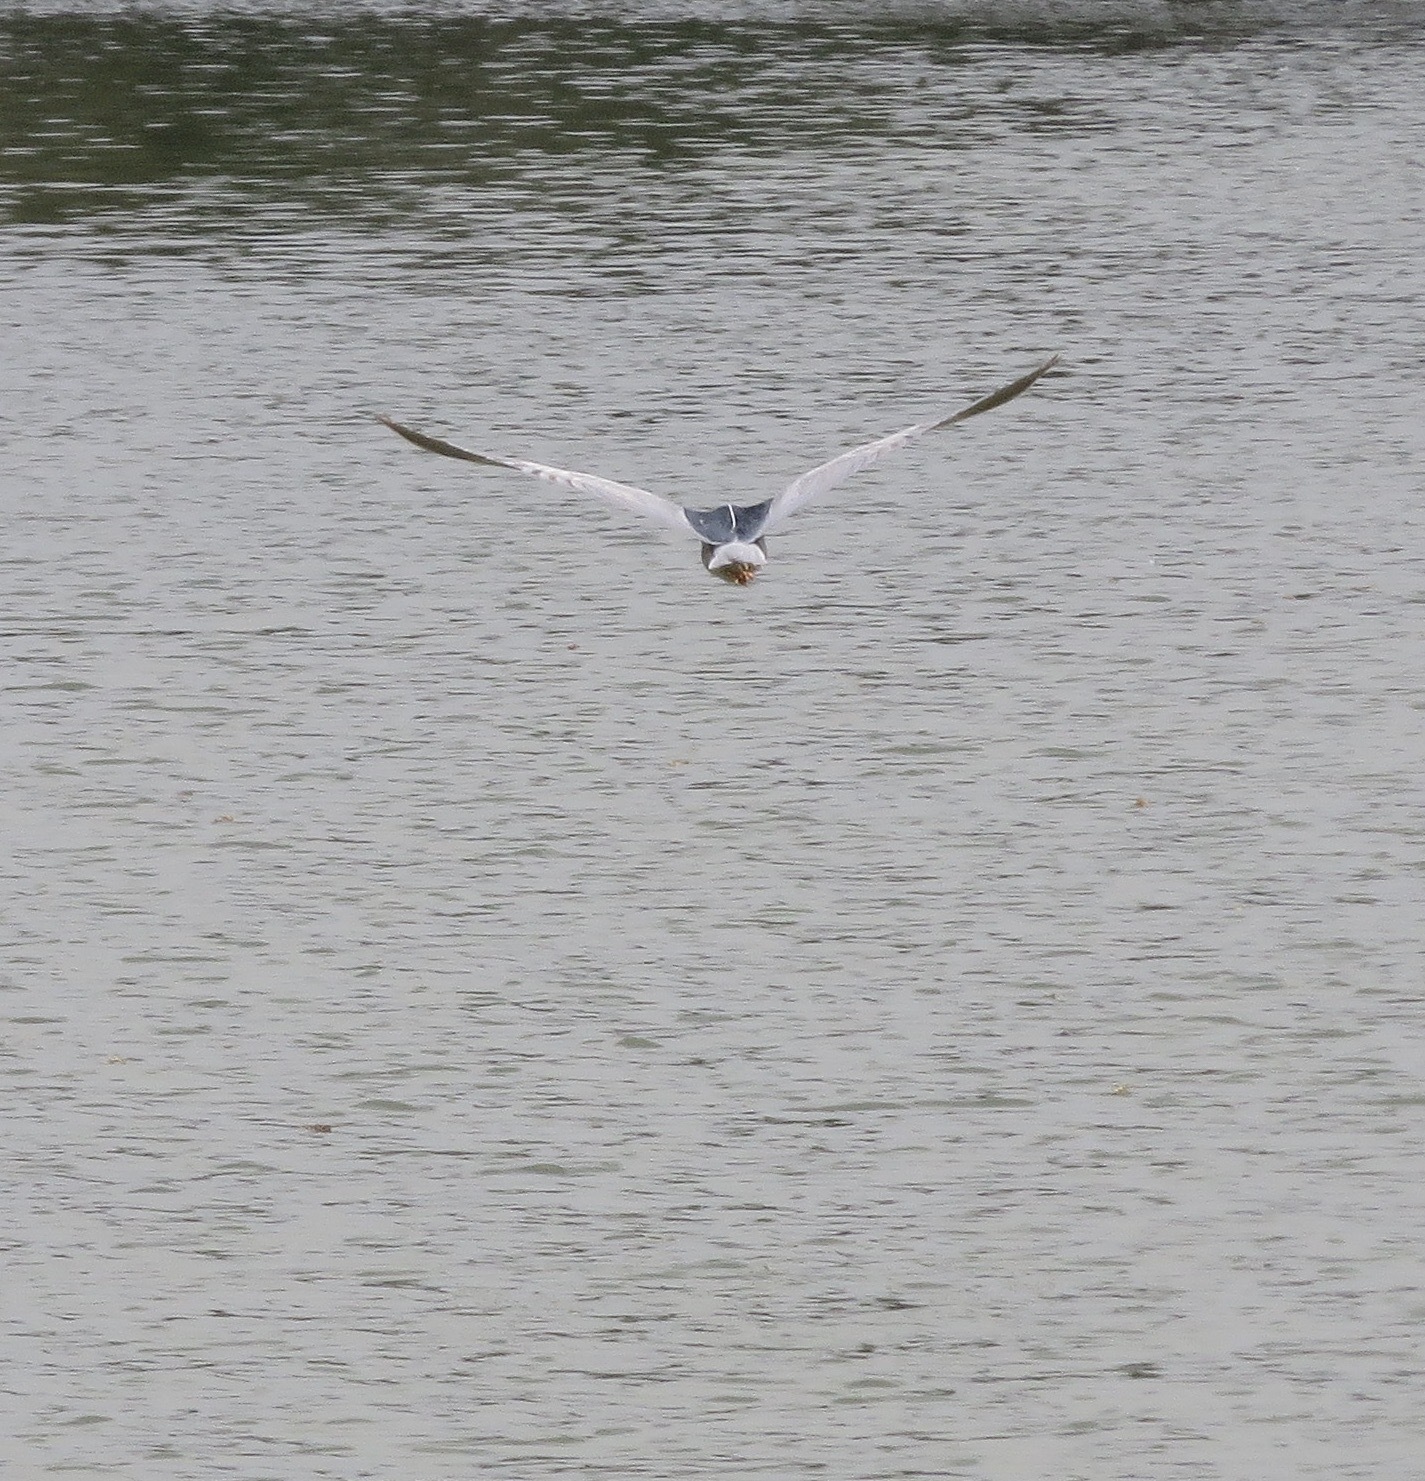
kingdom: Animalia
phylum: Chordata
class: Aves
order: Pelecaniformes
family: Ardeidae
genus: Nycticorax
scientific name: Nycticorax nycticorax
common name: Black-crowned night heron
